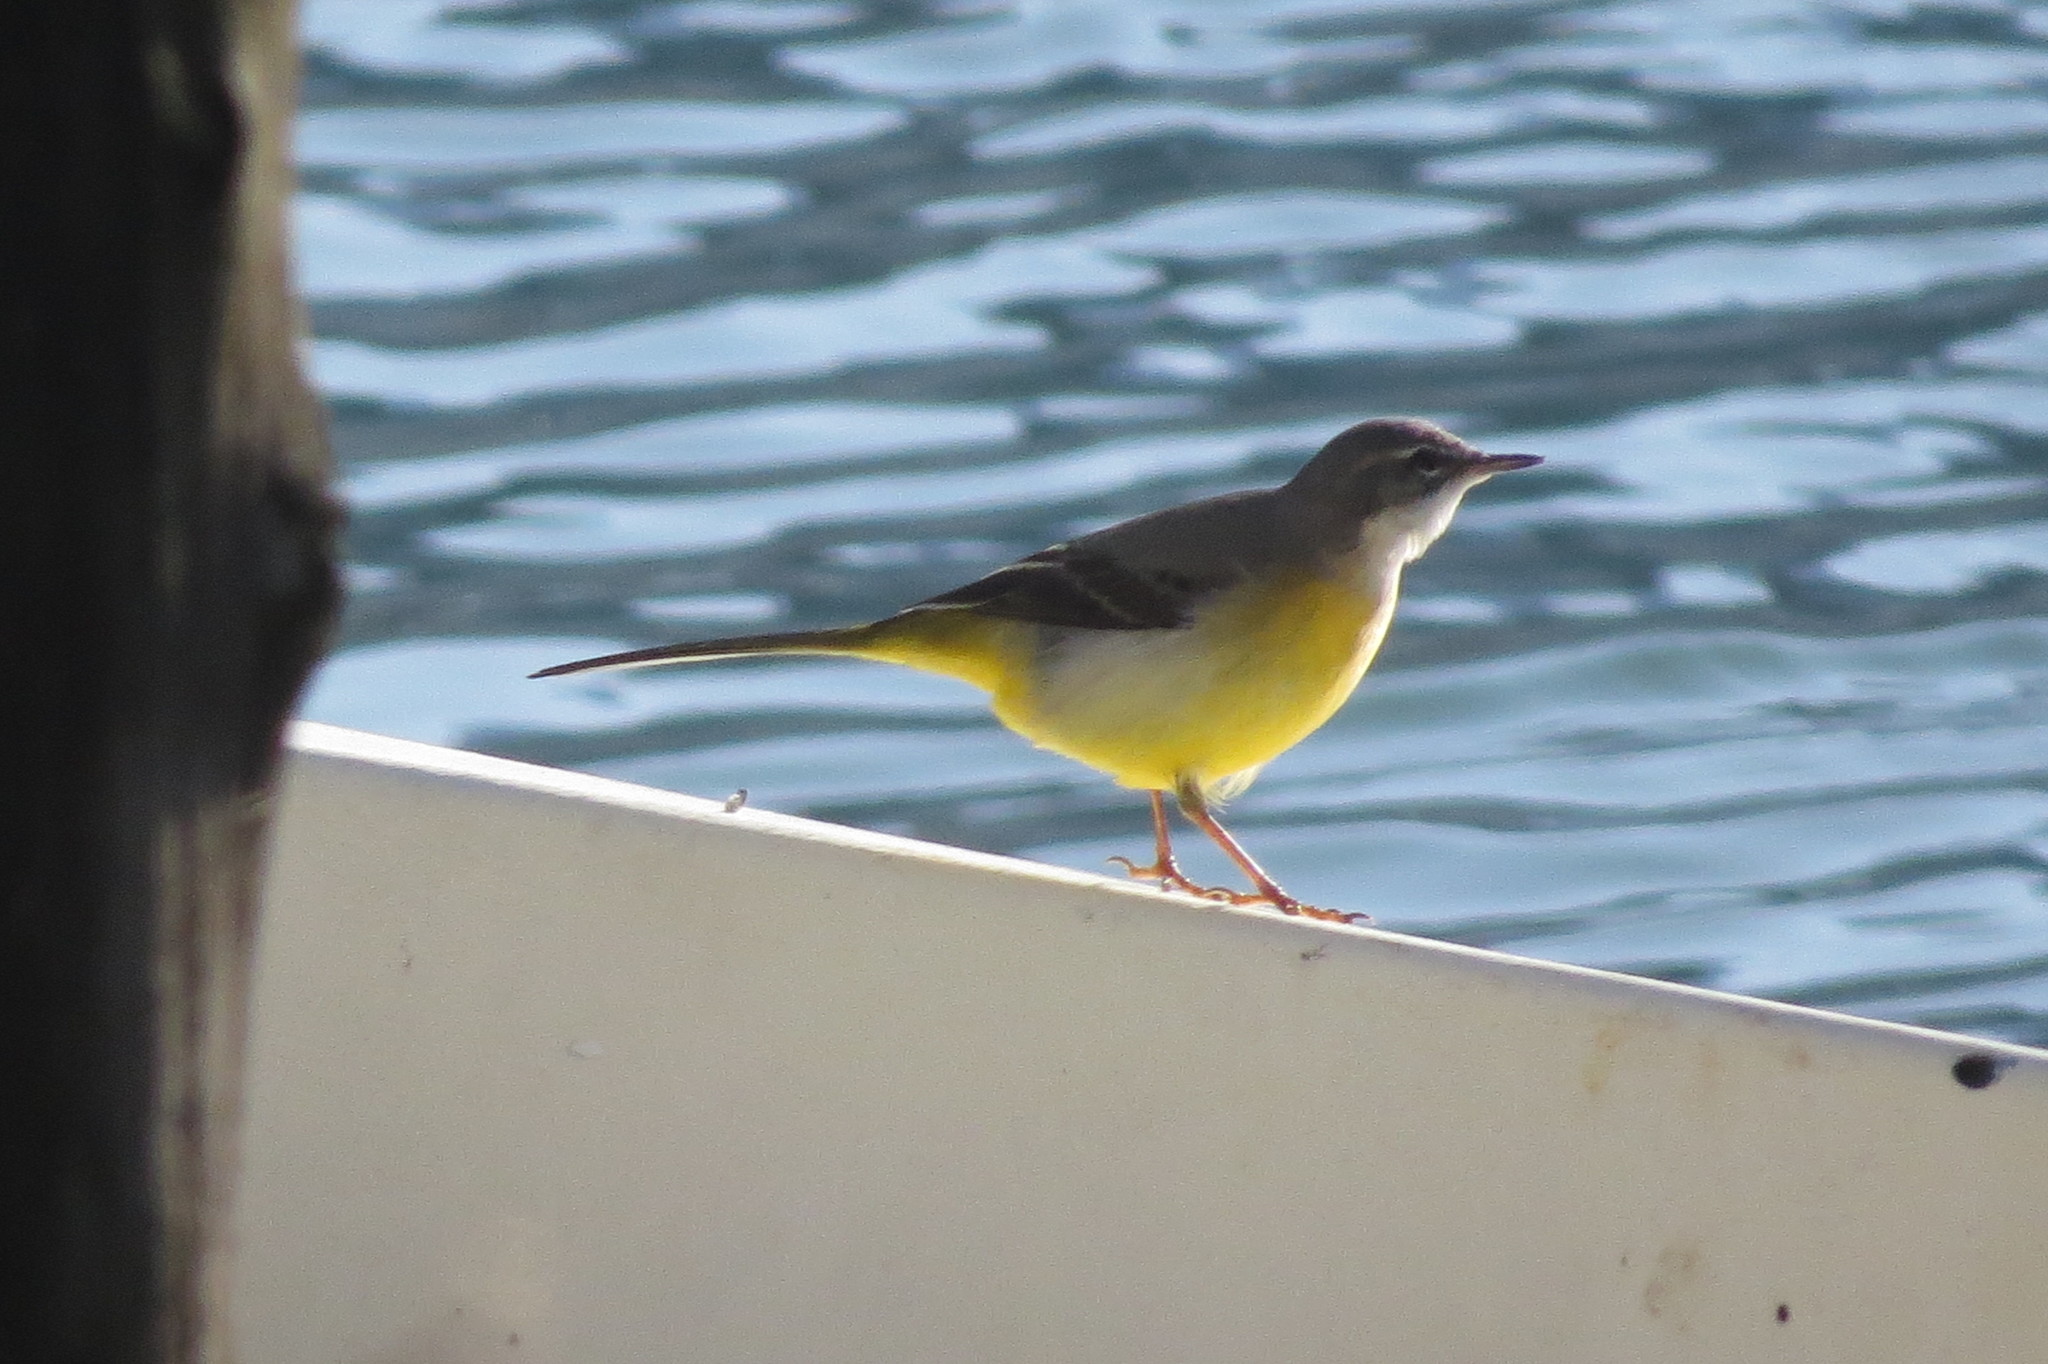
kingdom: Animalia
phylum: Chordata
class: Aves
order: Passeriformes
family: Motacillidae
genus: Motacilla
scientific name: Motacilla cinerea
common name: Grey wagtail
